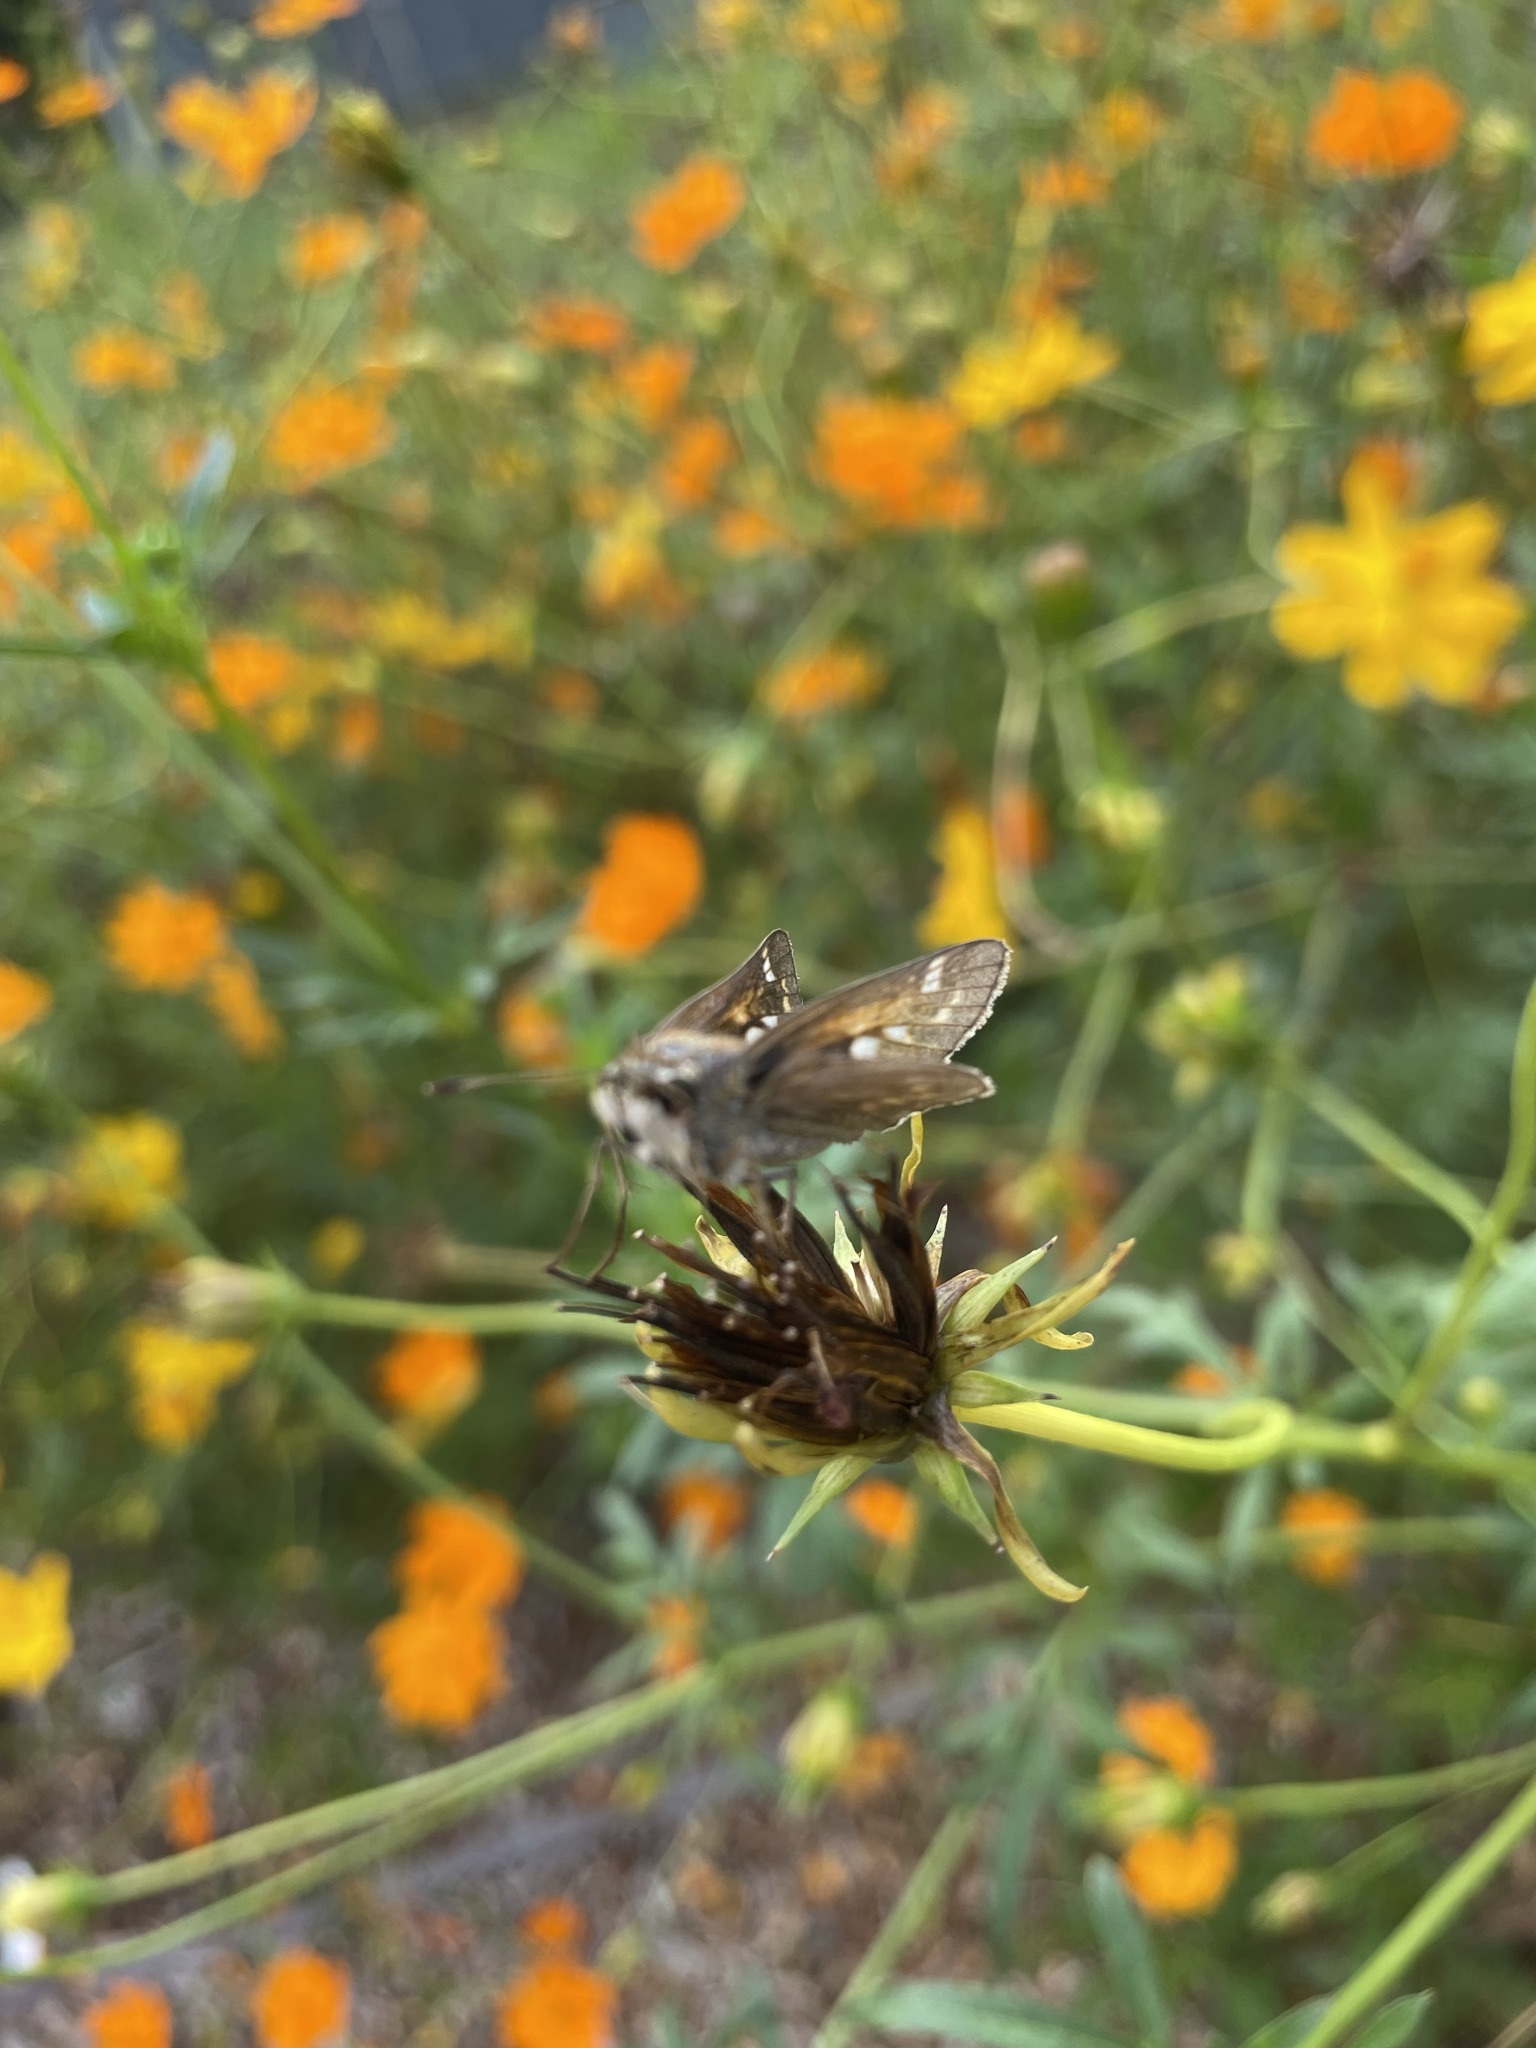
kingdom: Animalia
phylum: Arthropoda
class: Insecta
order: Lepidoptera
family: Hesperiidae
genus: Atalopedes
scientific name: Atalopedes
